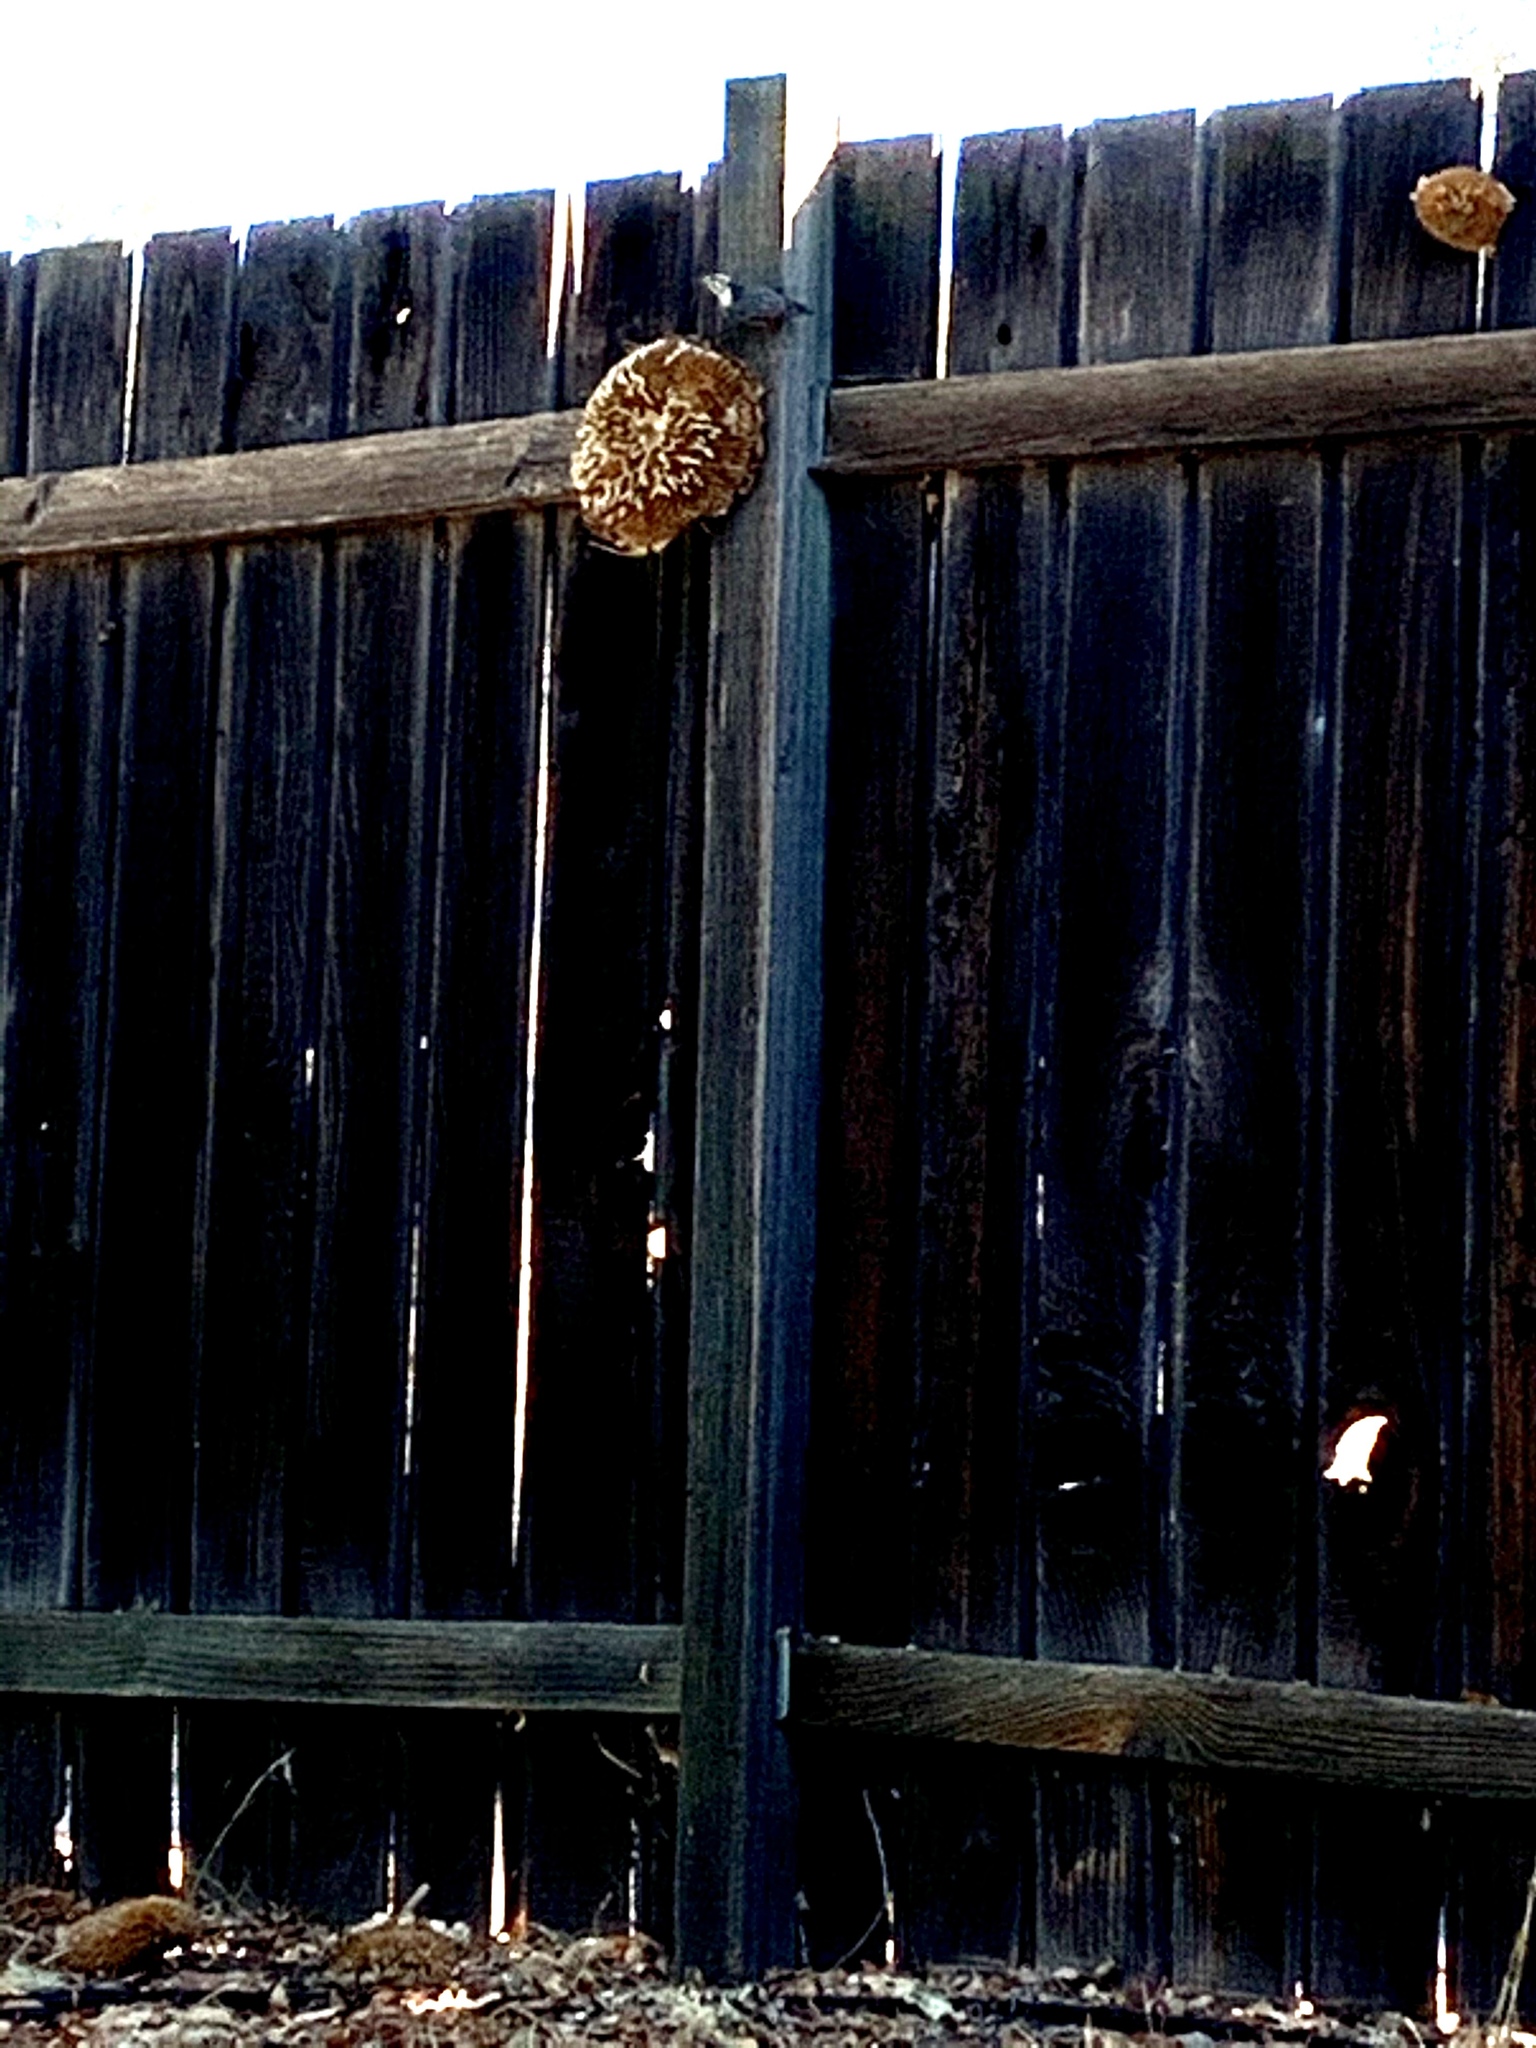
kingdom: Animalia
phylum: Chordata
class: Aves
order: Passeriformes
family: Sittidae
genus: Sitta
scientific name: Sitta carolinensis
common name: White-breasted nuthatch
